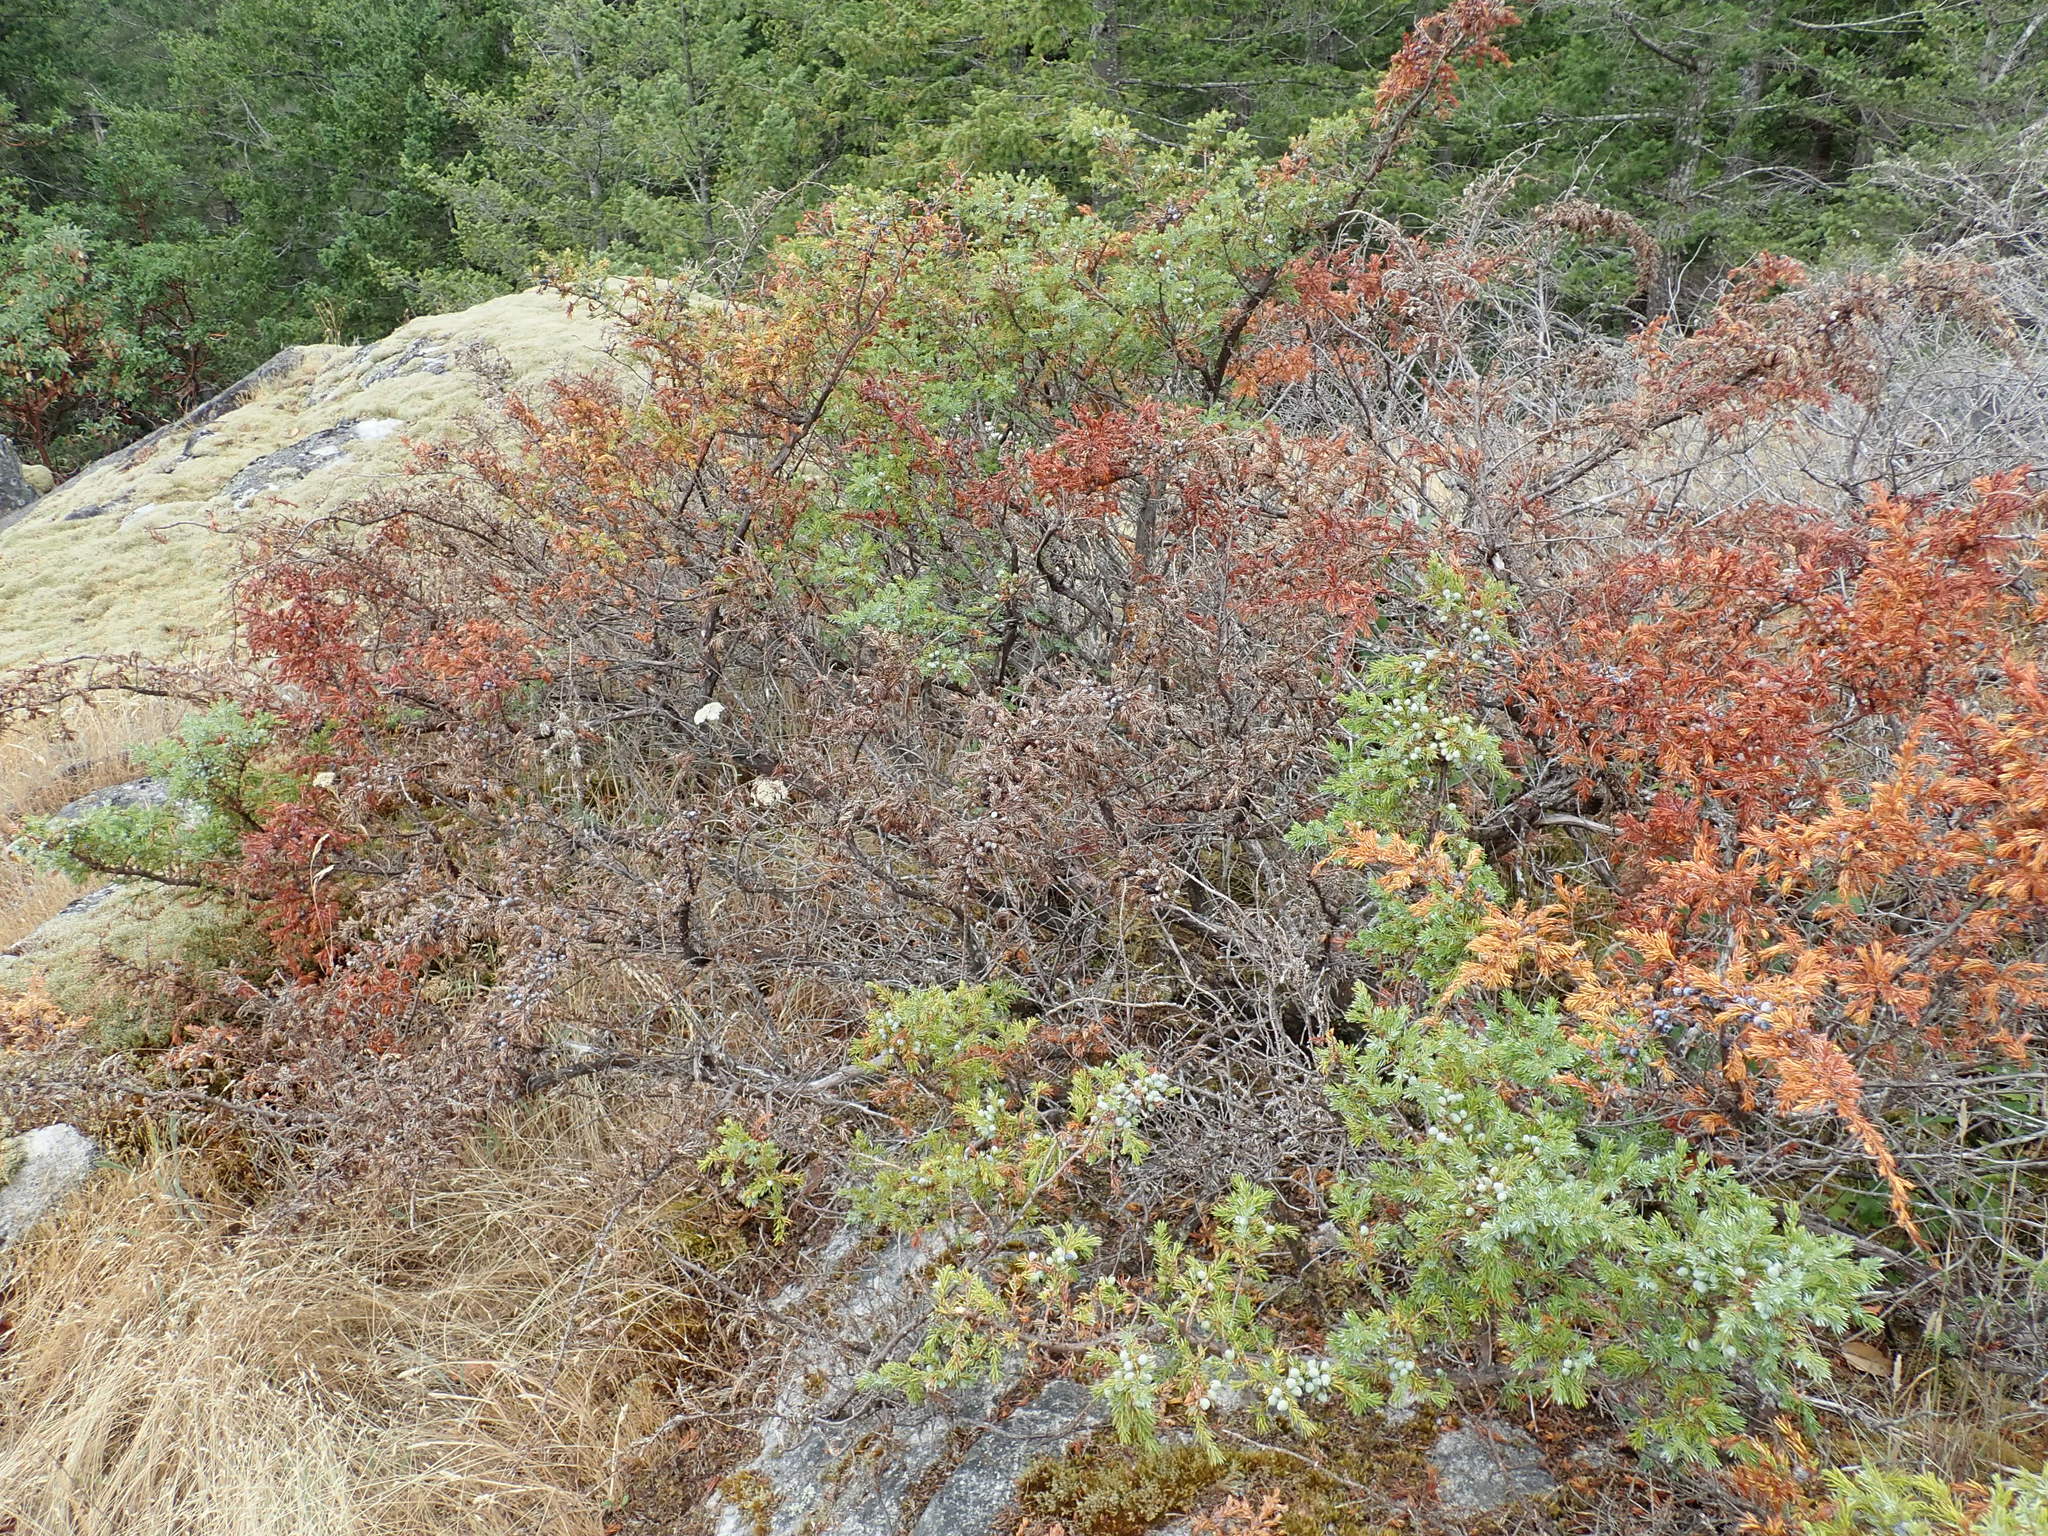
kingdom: Plantae
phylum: Tracheophyta
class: Pinopsida
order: Pinales
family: Cupressaceae
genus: Juniperus
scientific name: Juniperus communis
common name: Common juniper
